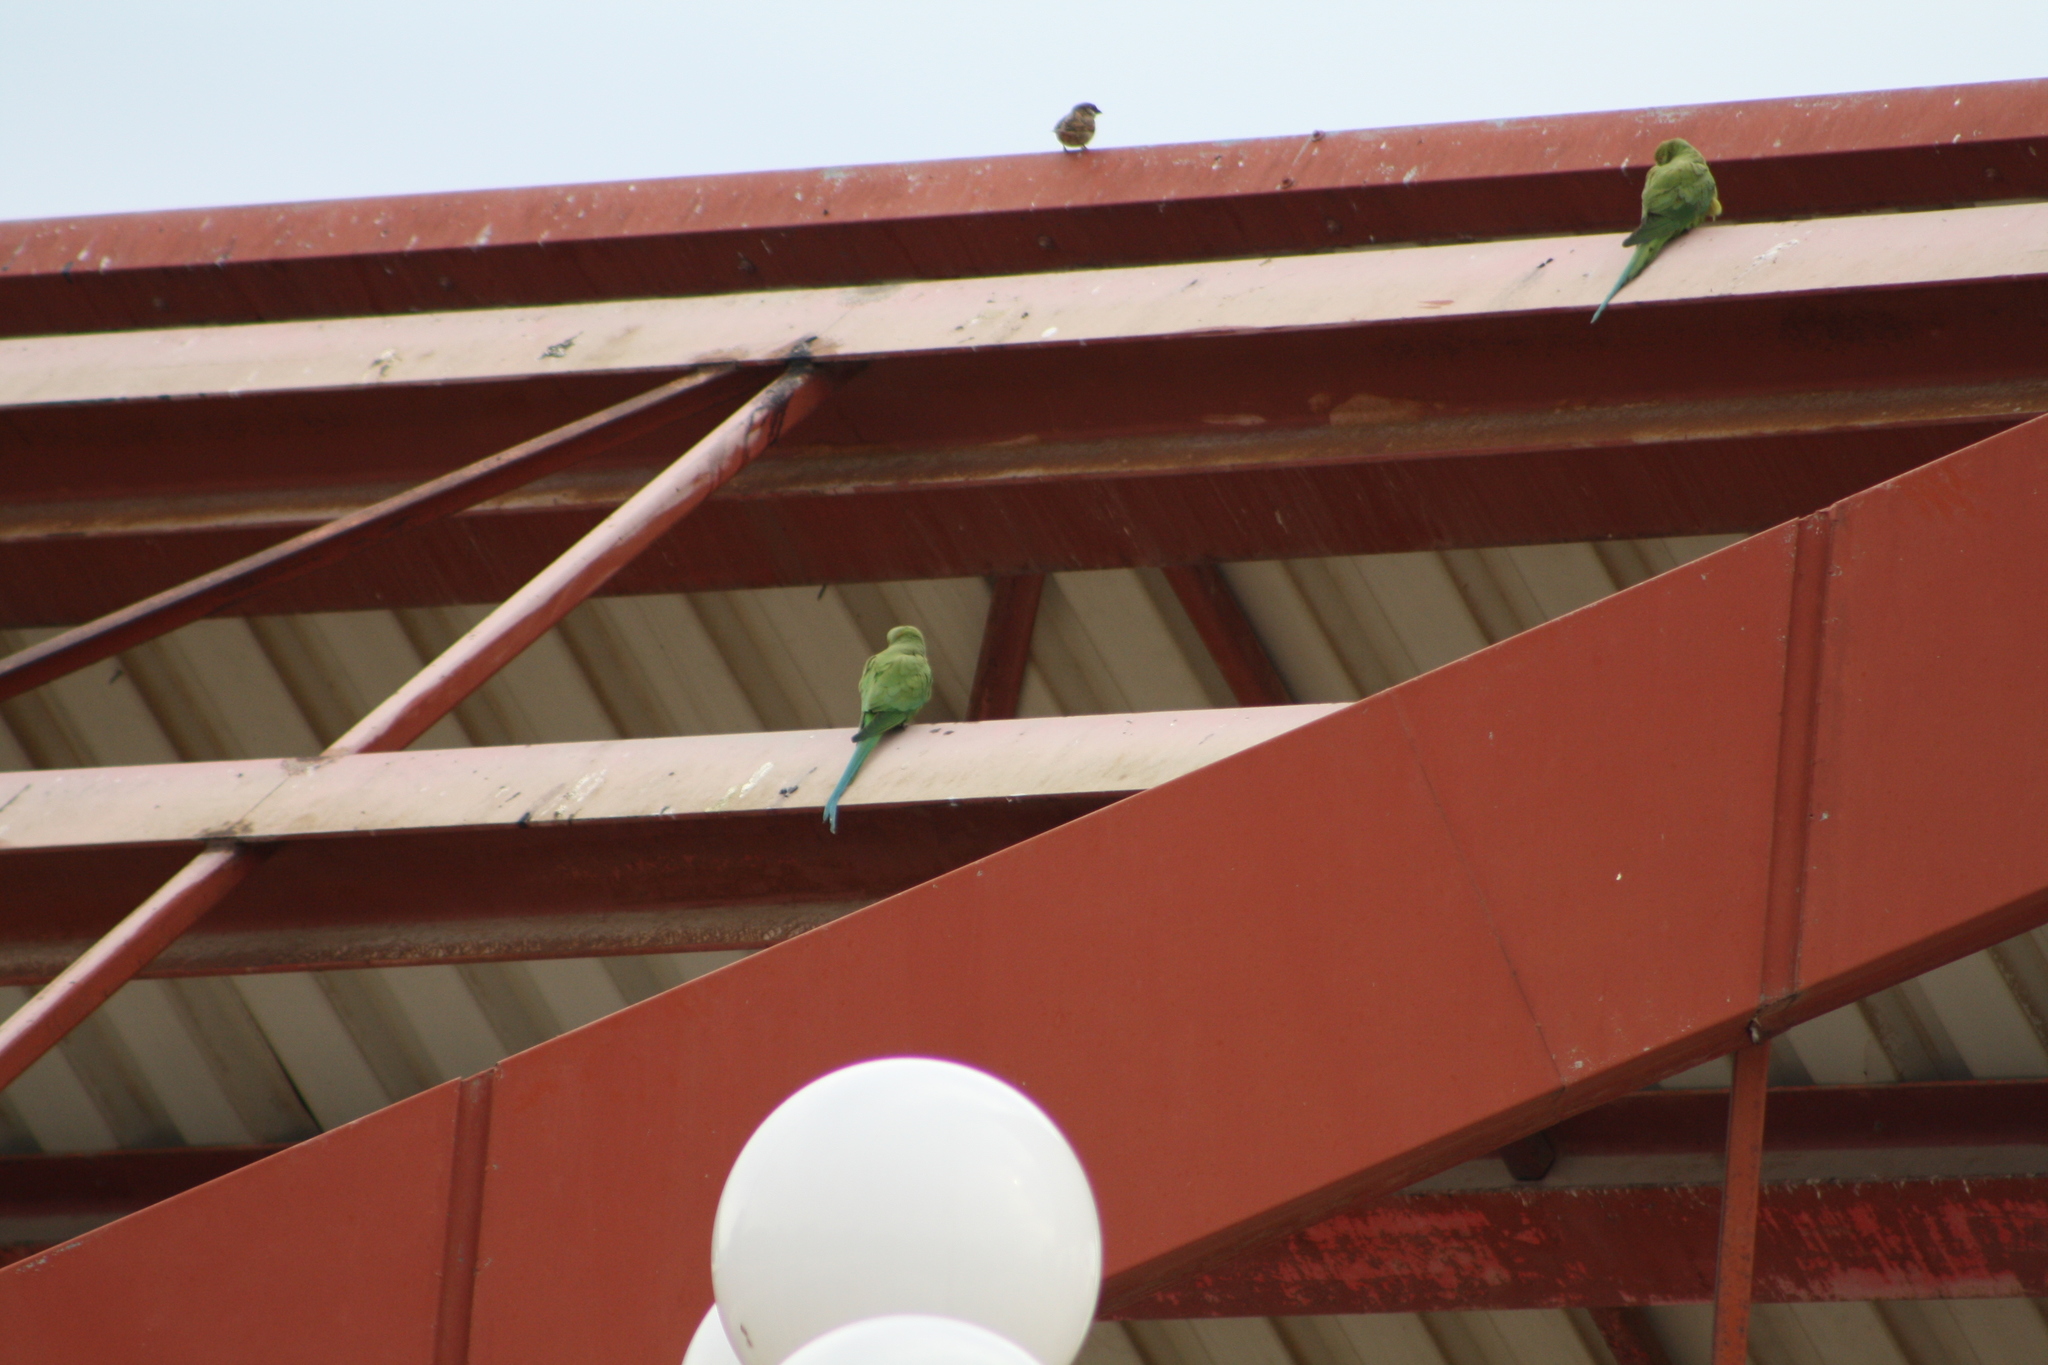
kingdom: Animalia
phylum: Chordata
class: Aves
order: Psittaciformes
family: Psittacidae
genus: Psittacula
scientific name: Psittacula krameri
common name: Rose-ringed parakeet
